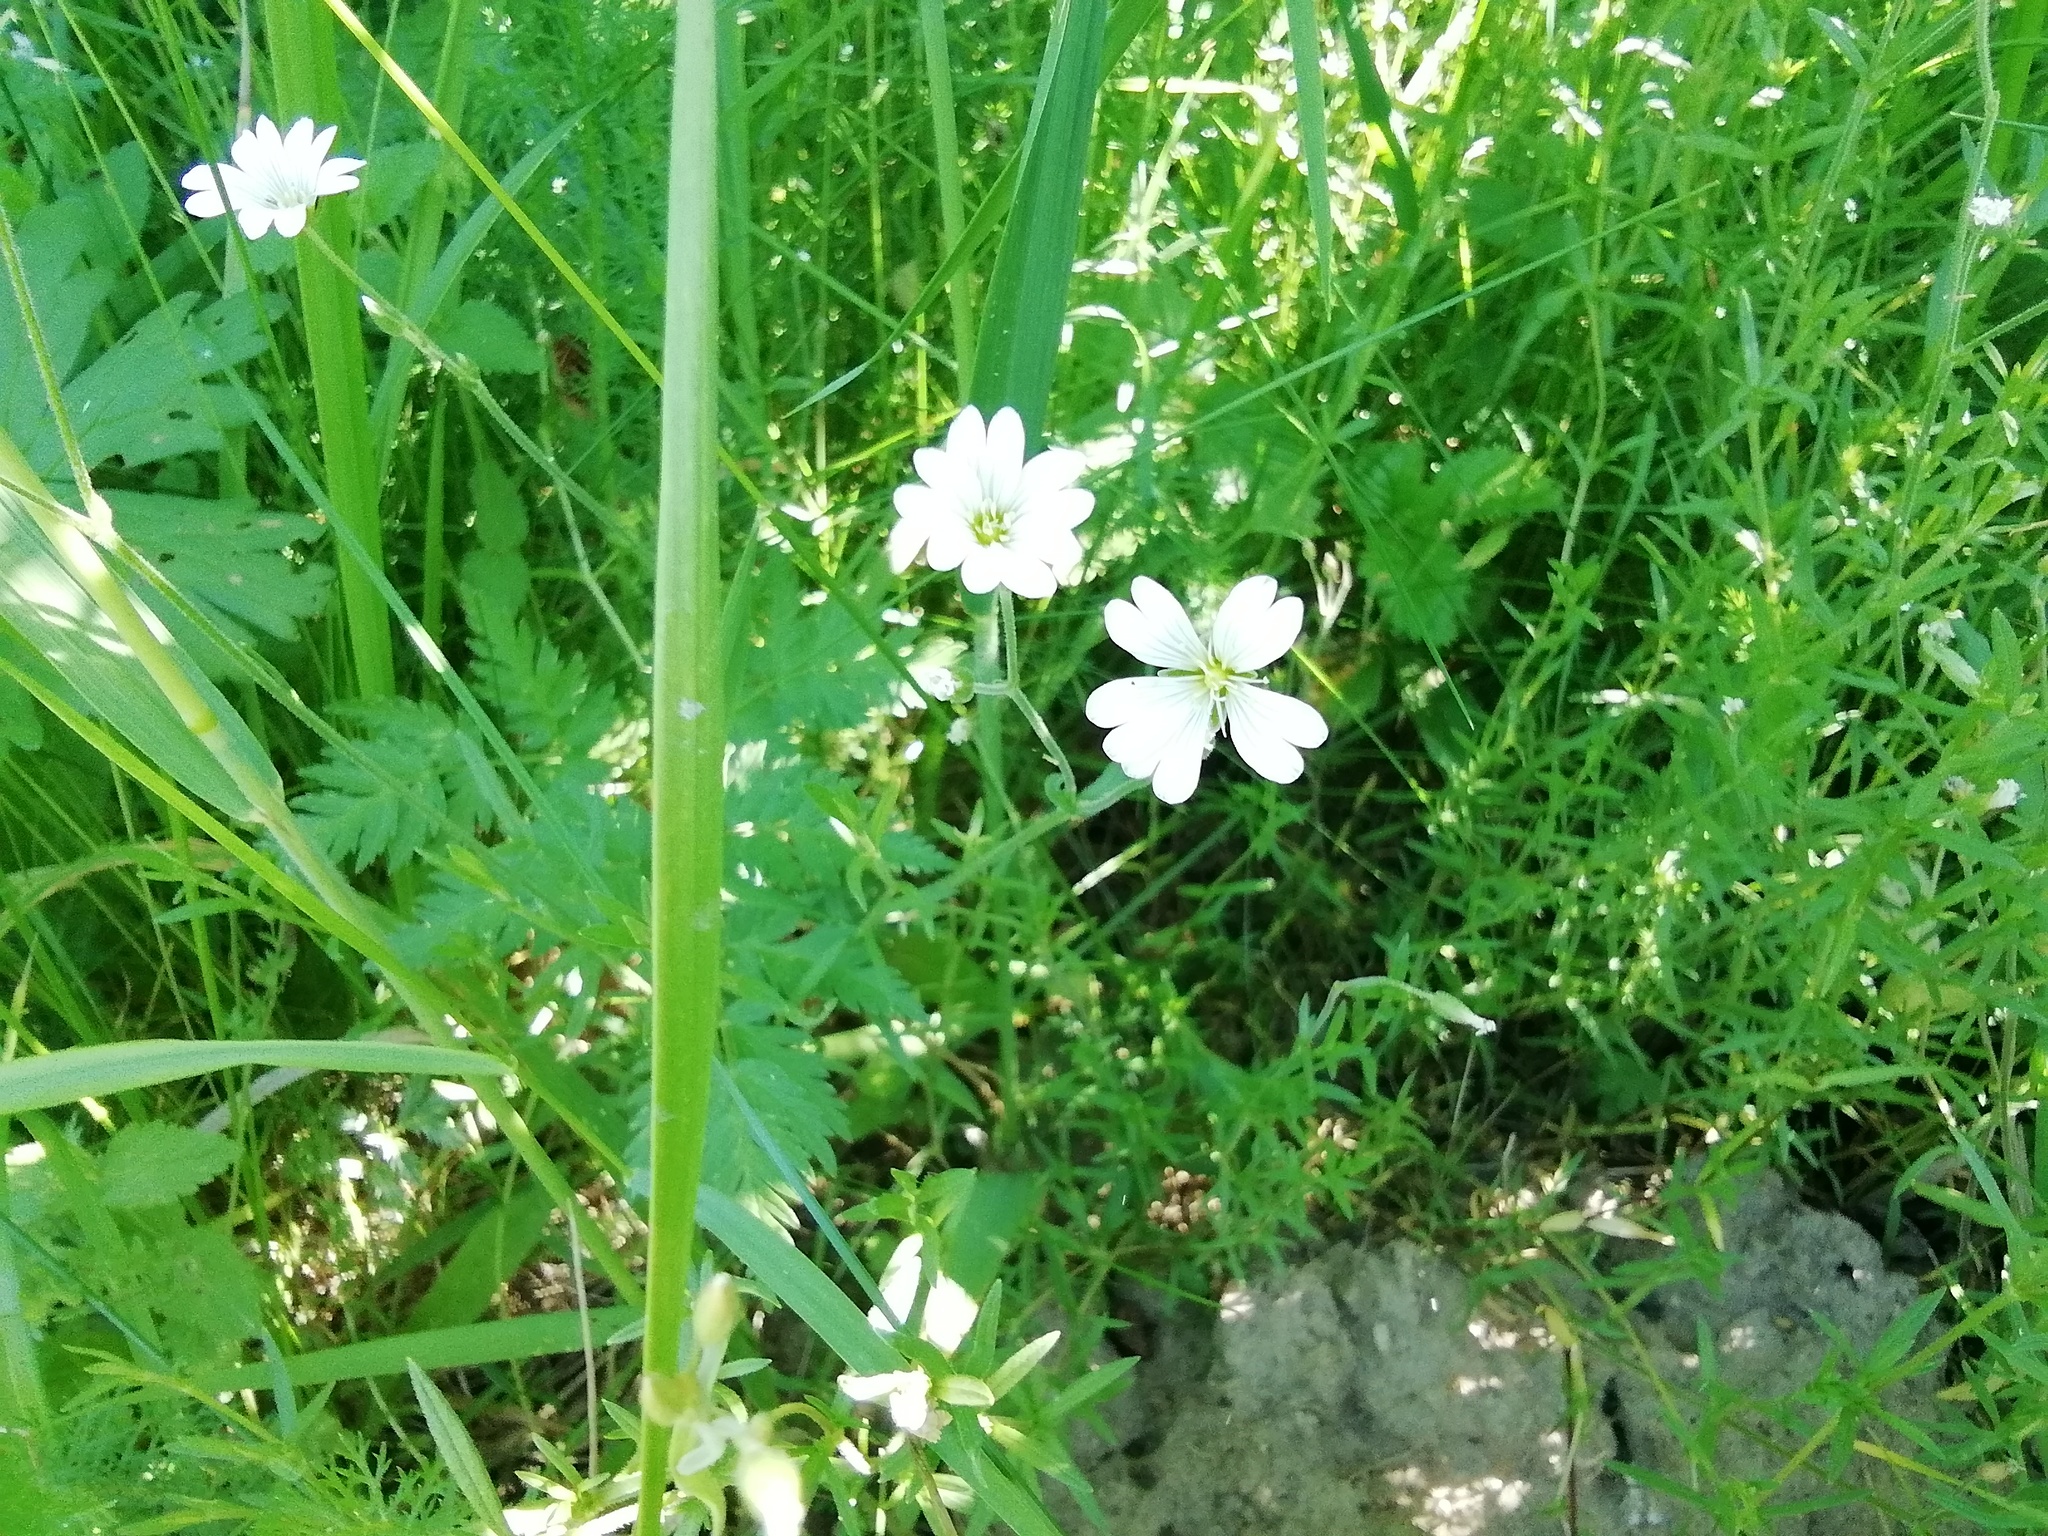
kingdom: Plantae
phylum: Tracheophyta
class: Magnoliopsida
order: Caryophyllales
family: Caryophyllaceae
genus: Cerastium
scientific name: Cerastium arvense
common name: Field mouse-ear
